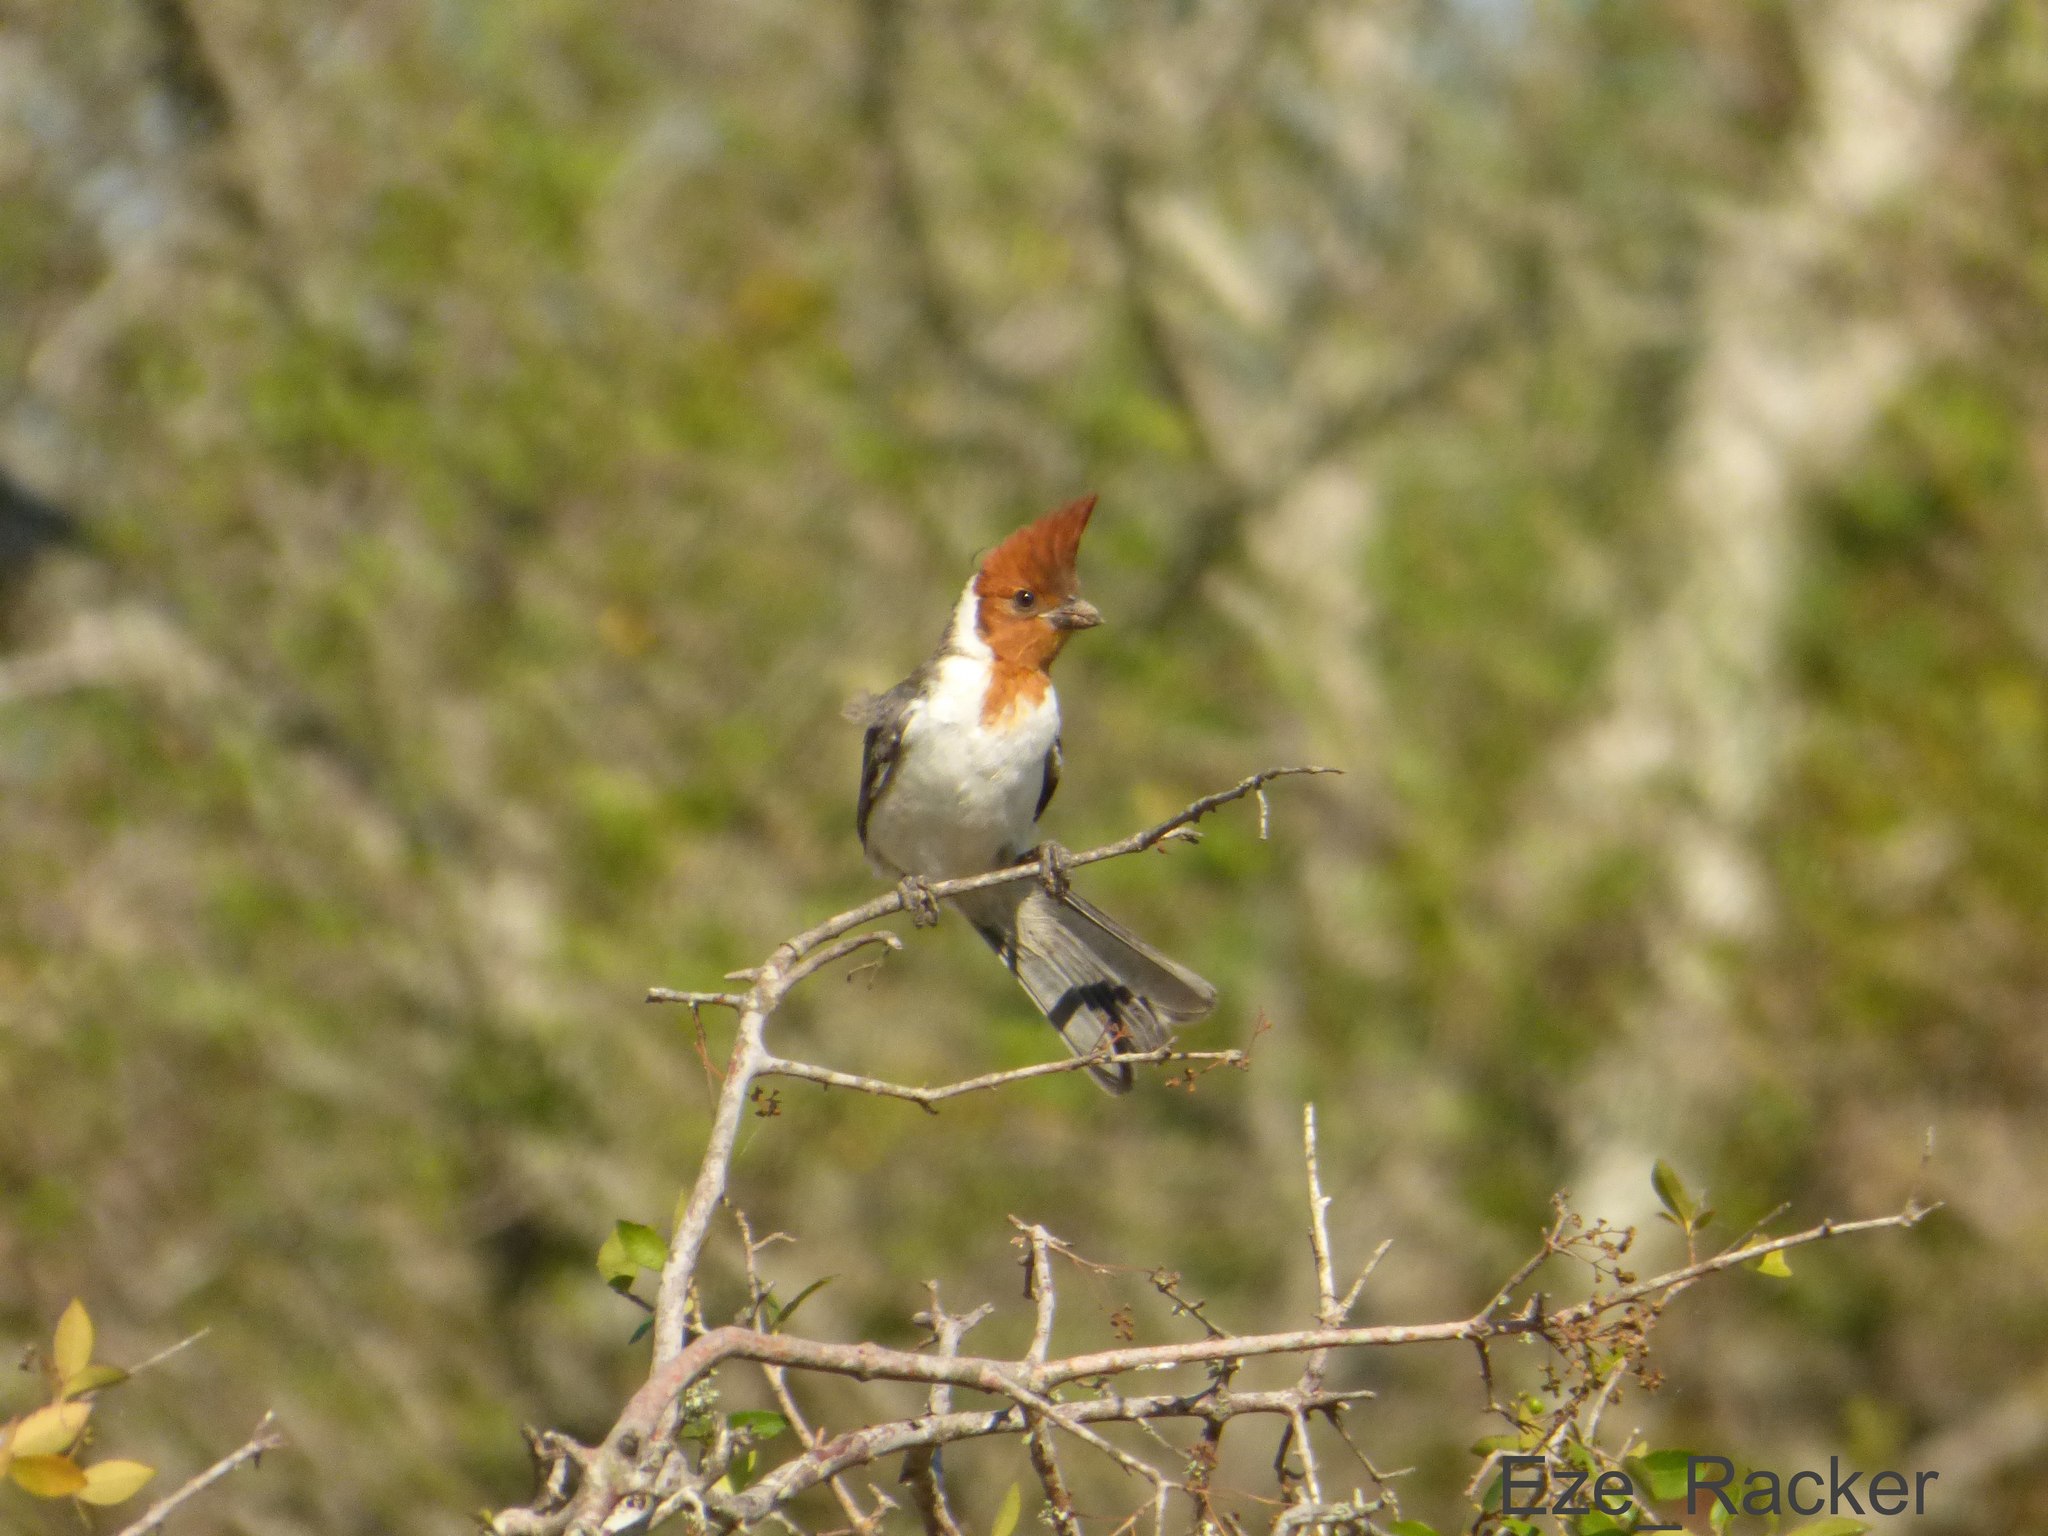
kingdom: Animalia
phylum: Chordata
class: Aves
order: Passeriformes
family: Thraupidae
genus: Paroaria
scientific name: Paroaria coronata
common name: Red-crested cardinal
